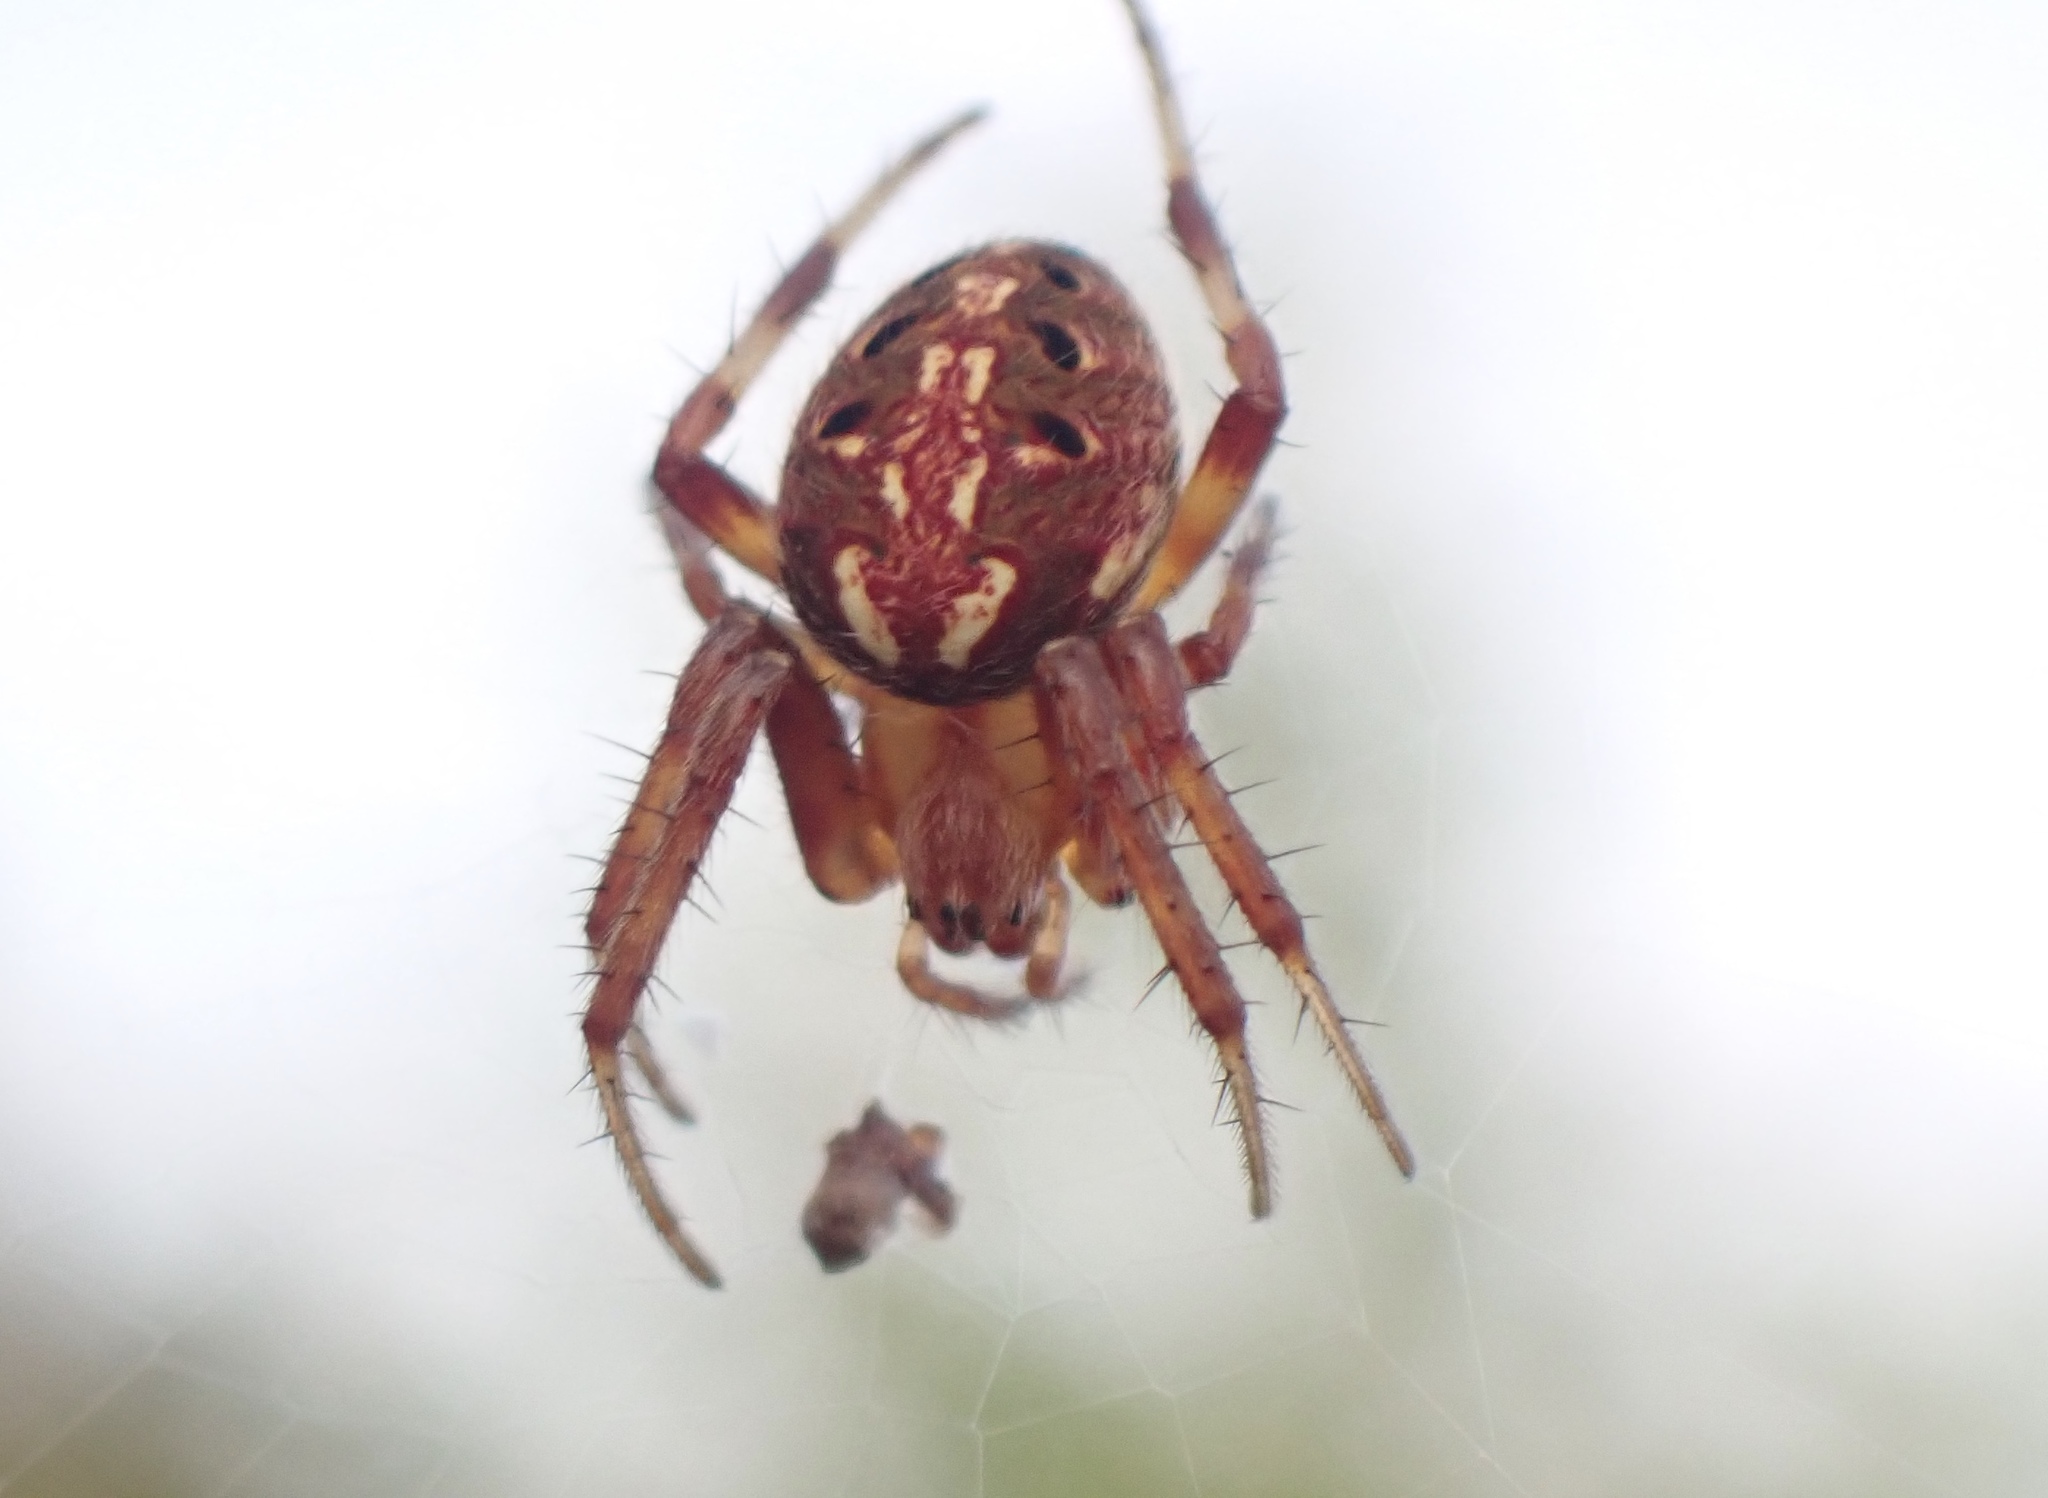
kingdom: Animalia
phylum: Arthropoda
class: Arachnida
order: Araneae
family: Araneidae
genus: Neoscona
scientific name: Neoscona arabesca
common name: Orb weavers
